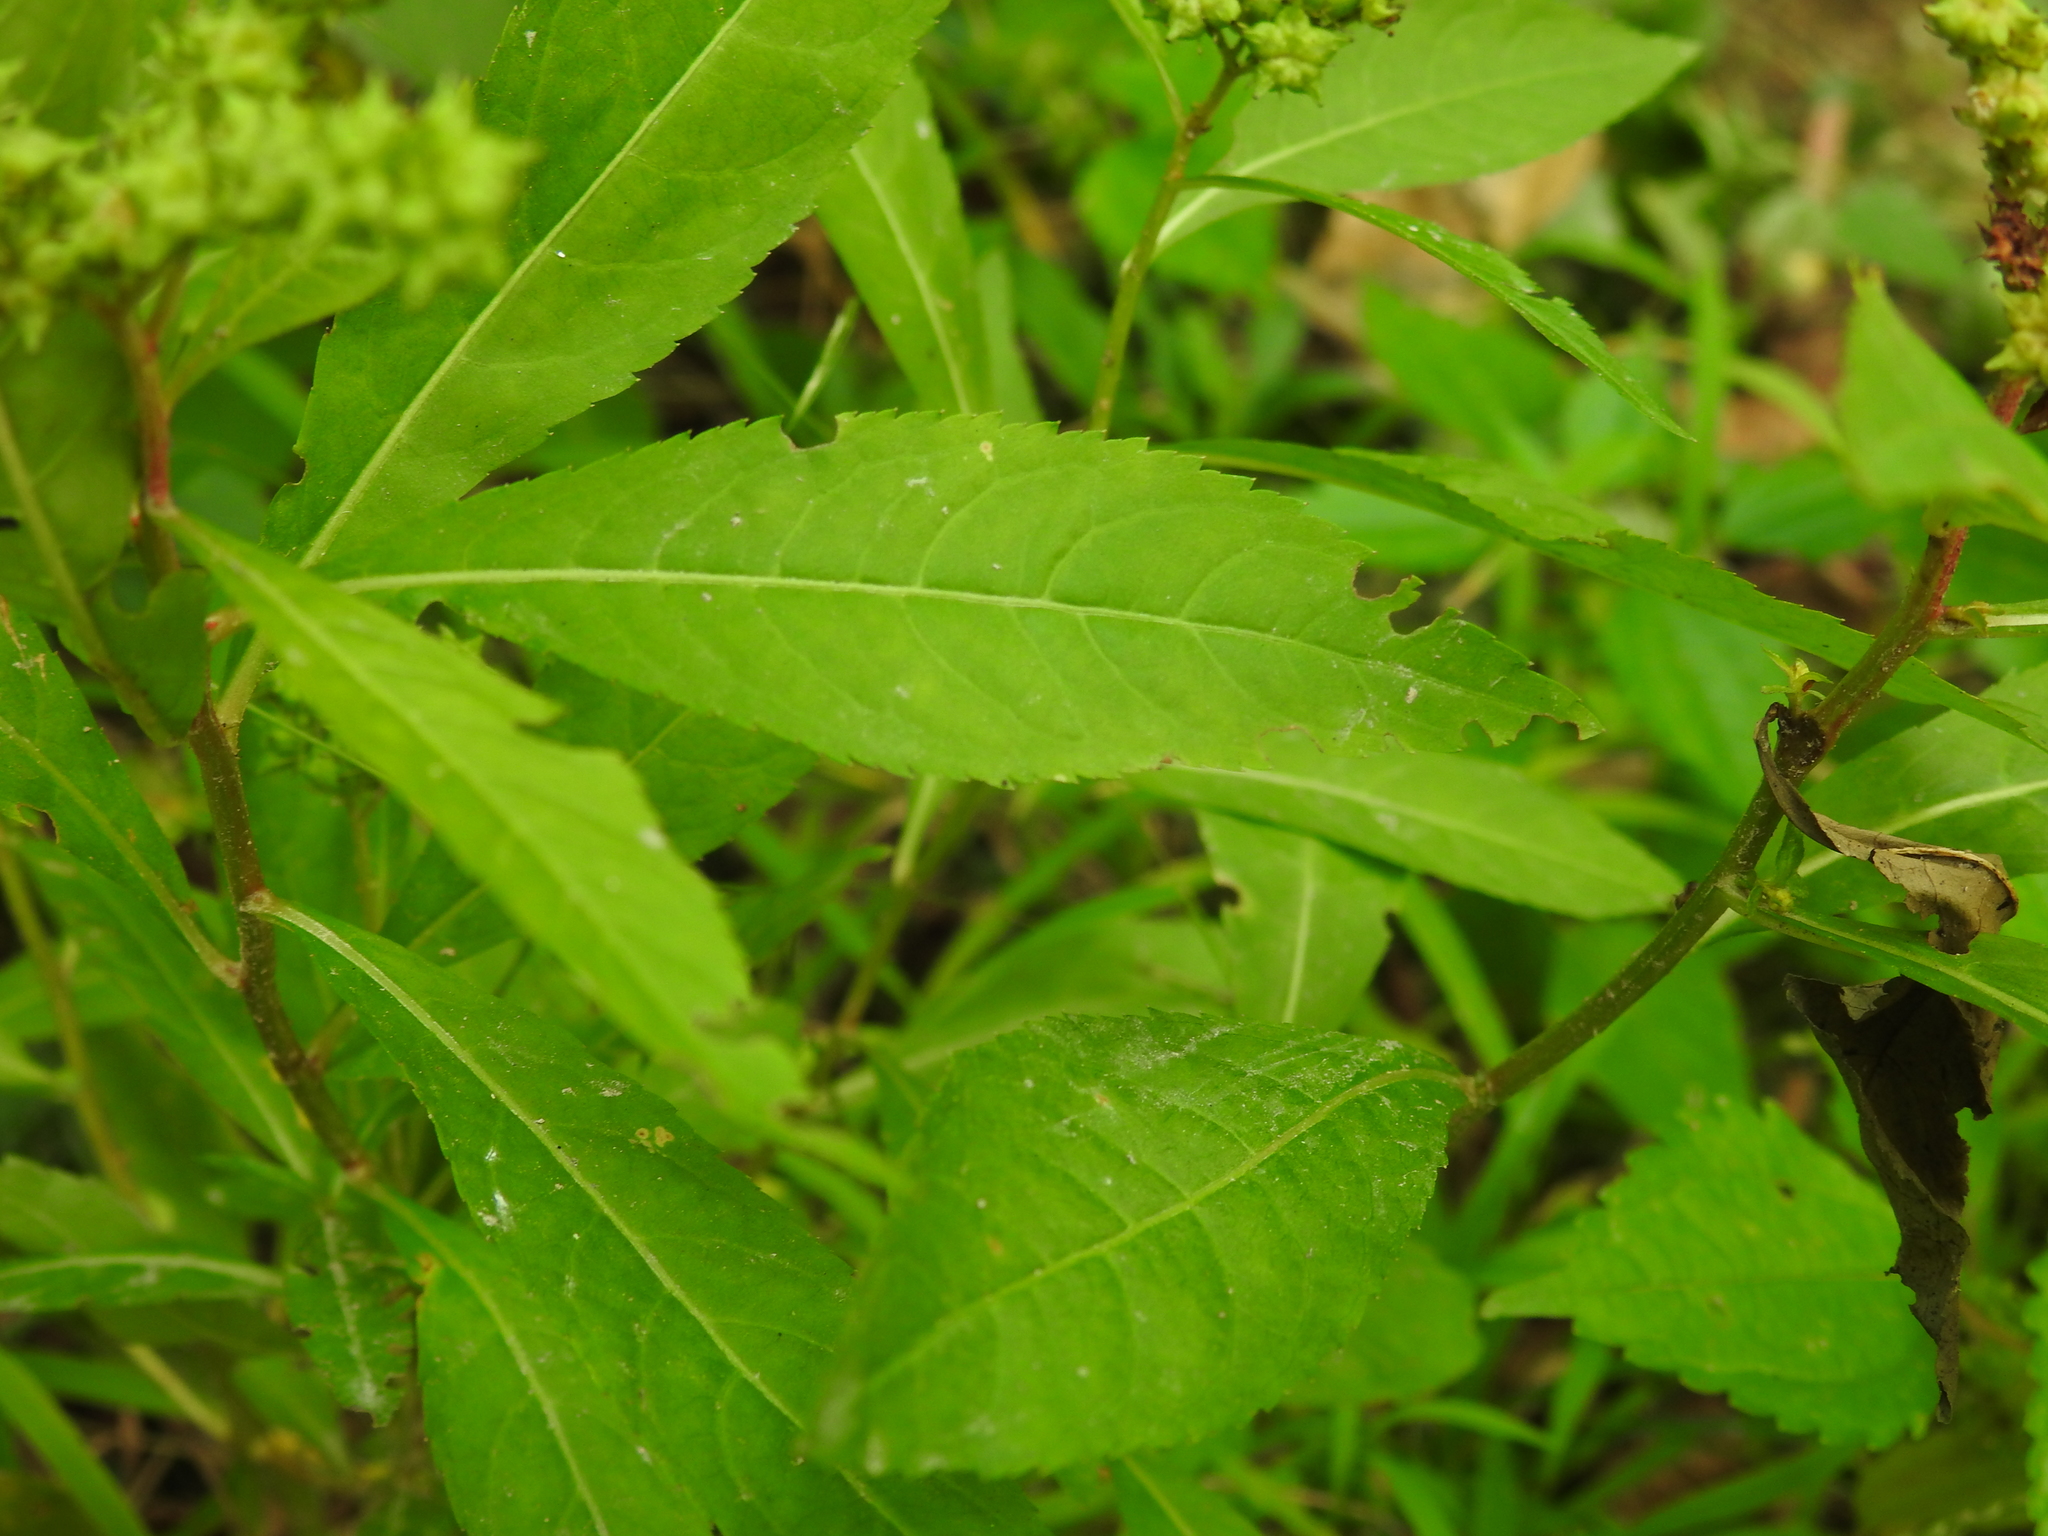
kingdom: Plantae
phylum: Tracheophyta
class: Magnoliopsida
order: Saxifragales
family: Penthoraceae
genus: Penthorum
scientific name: Penthorum sedoides
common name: Ditch stonecrop
